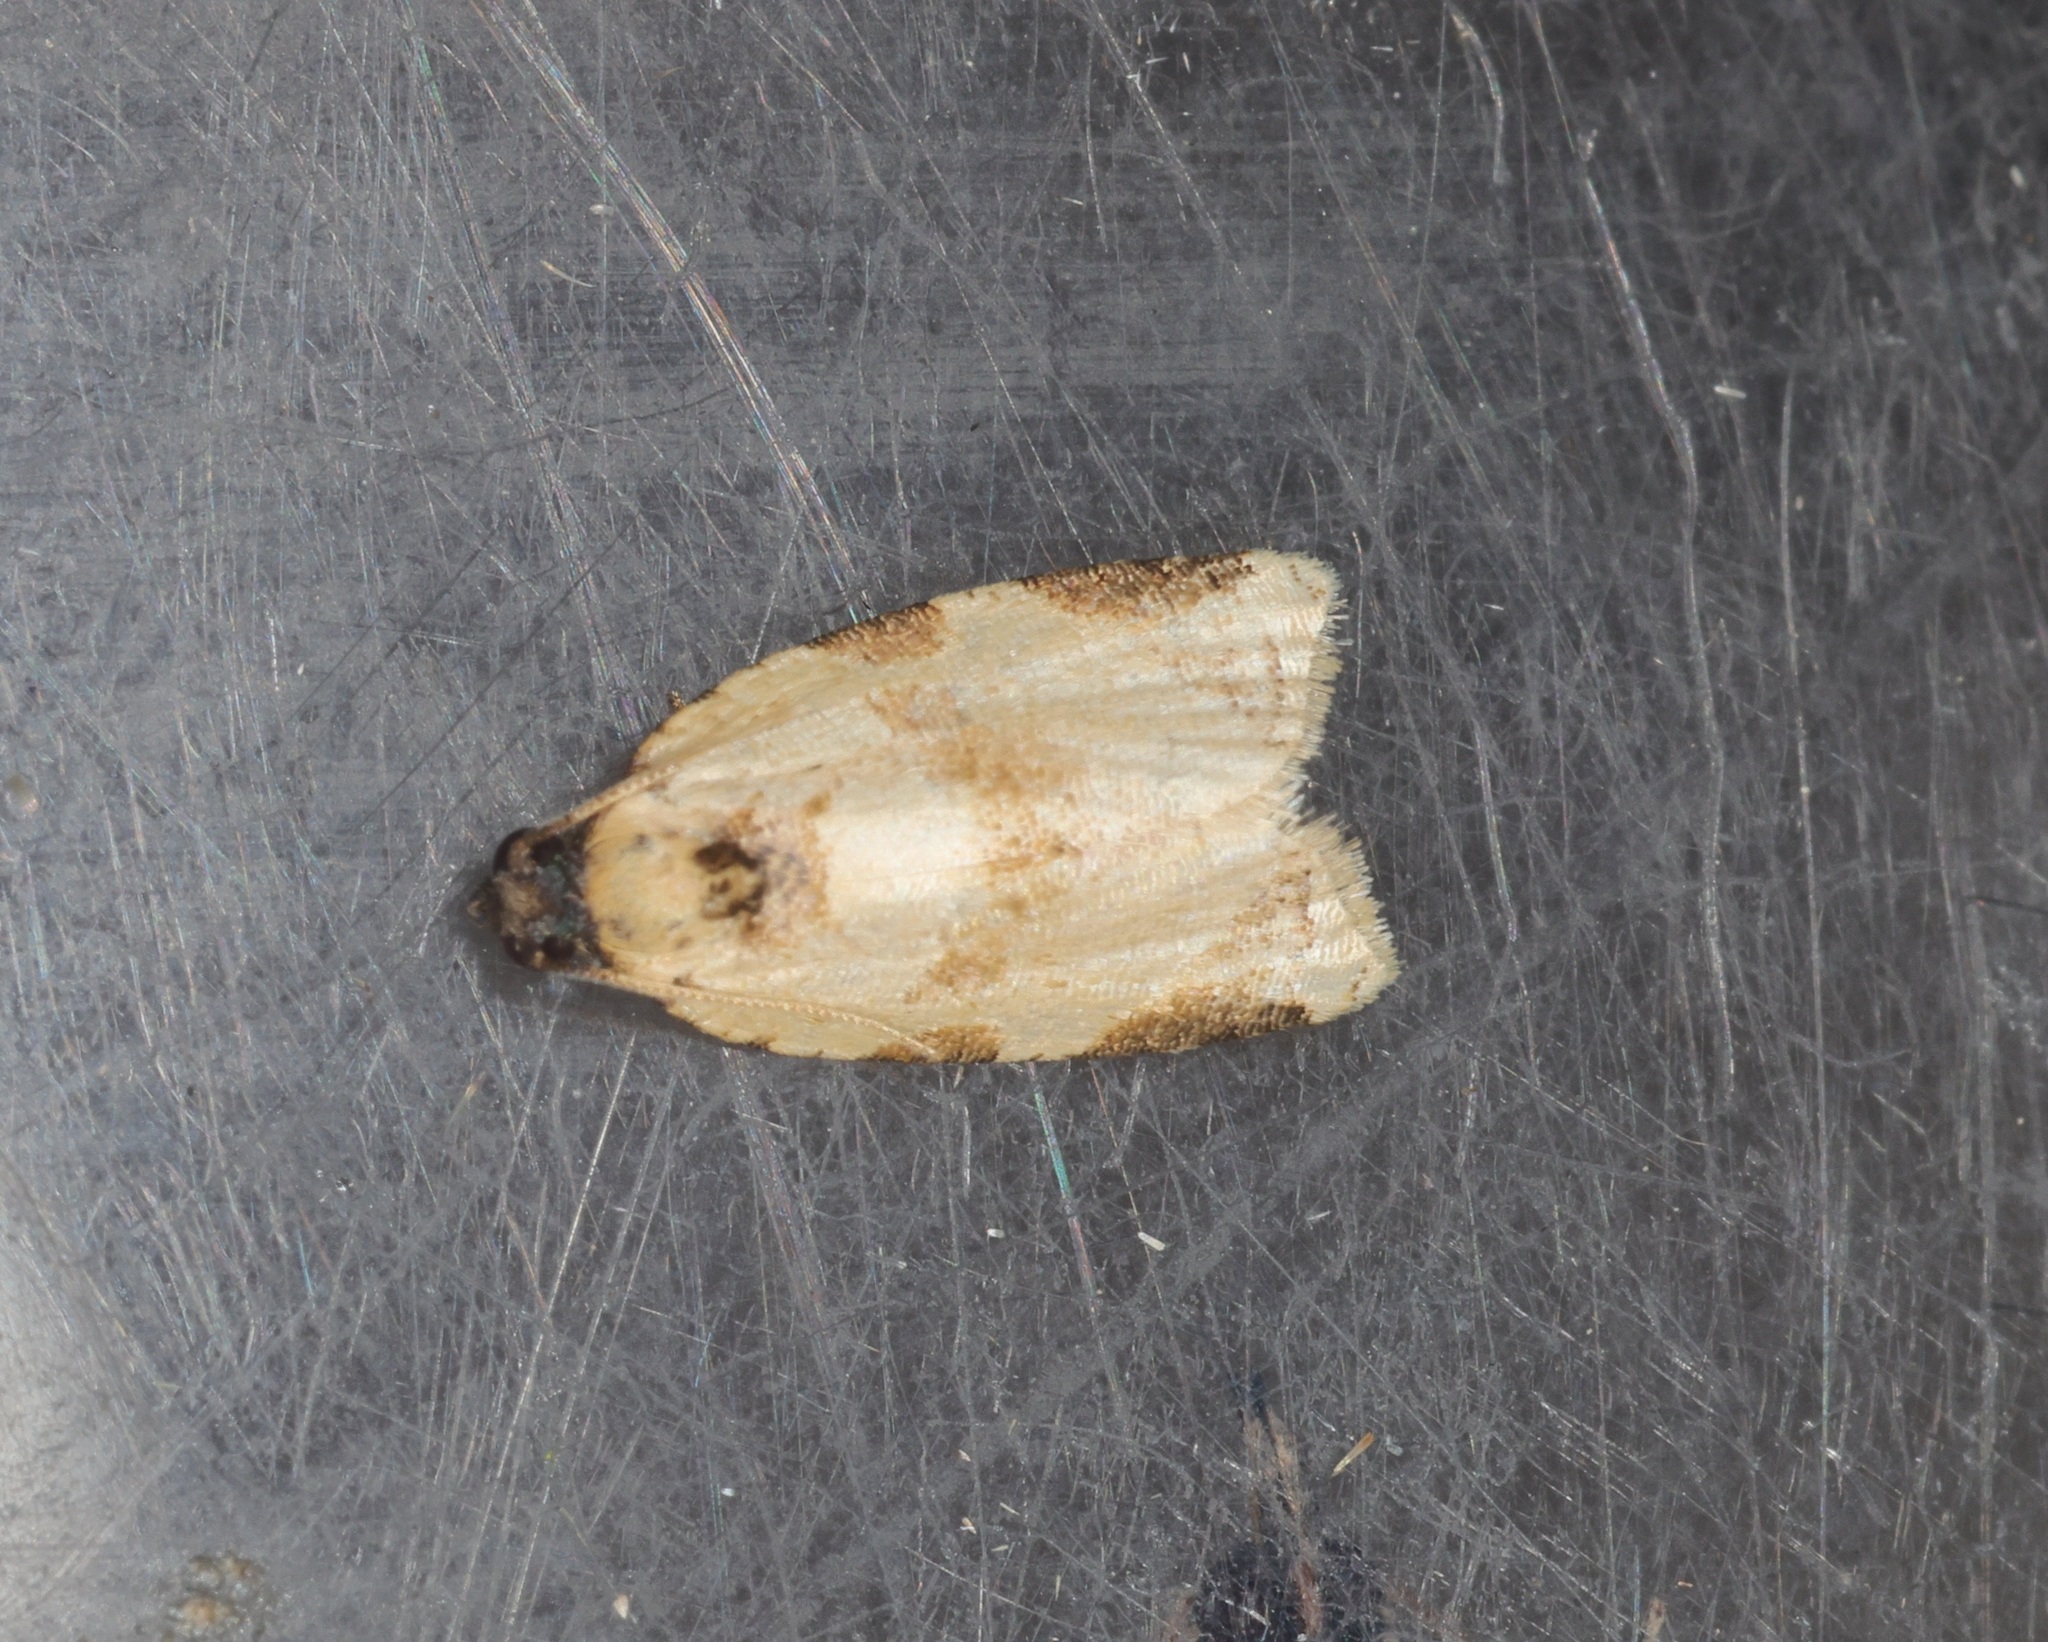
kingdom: Animalia
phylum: Arthropoda
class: Insecta
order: Lepidoptera
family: Tortricidae
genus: Neocalyptis
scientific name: Neocalyptis liratana
